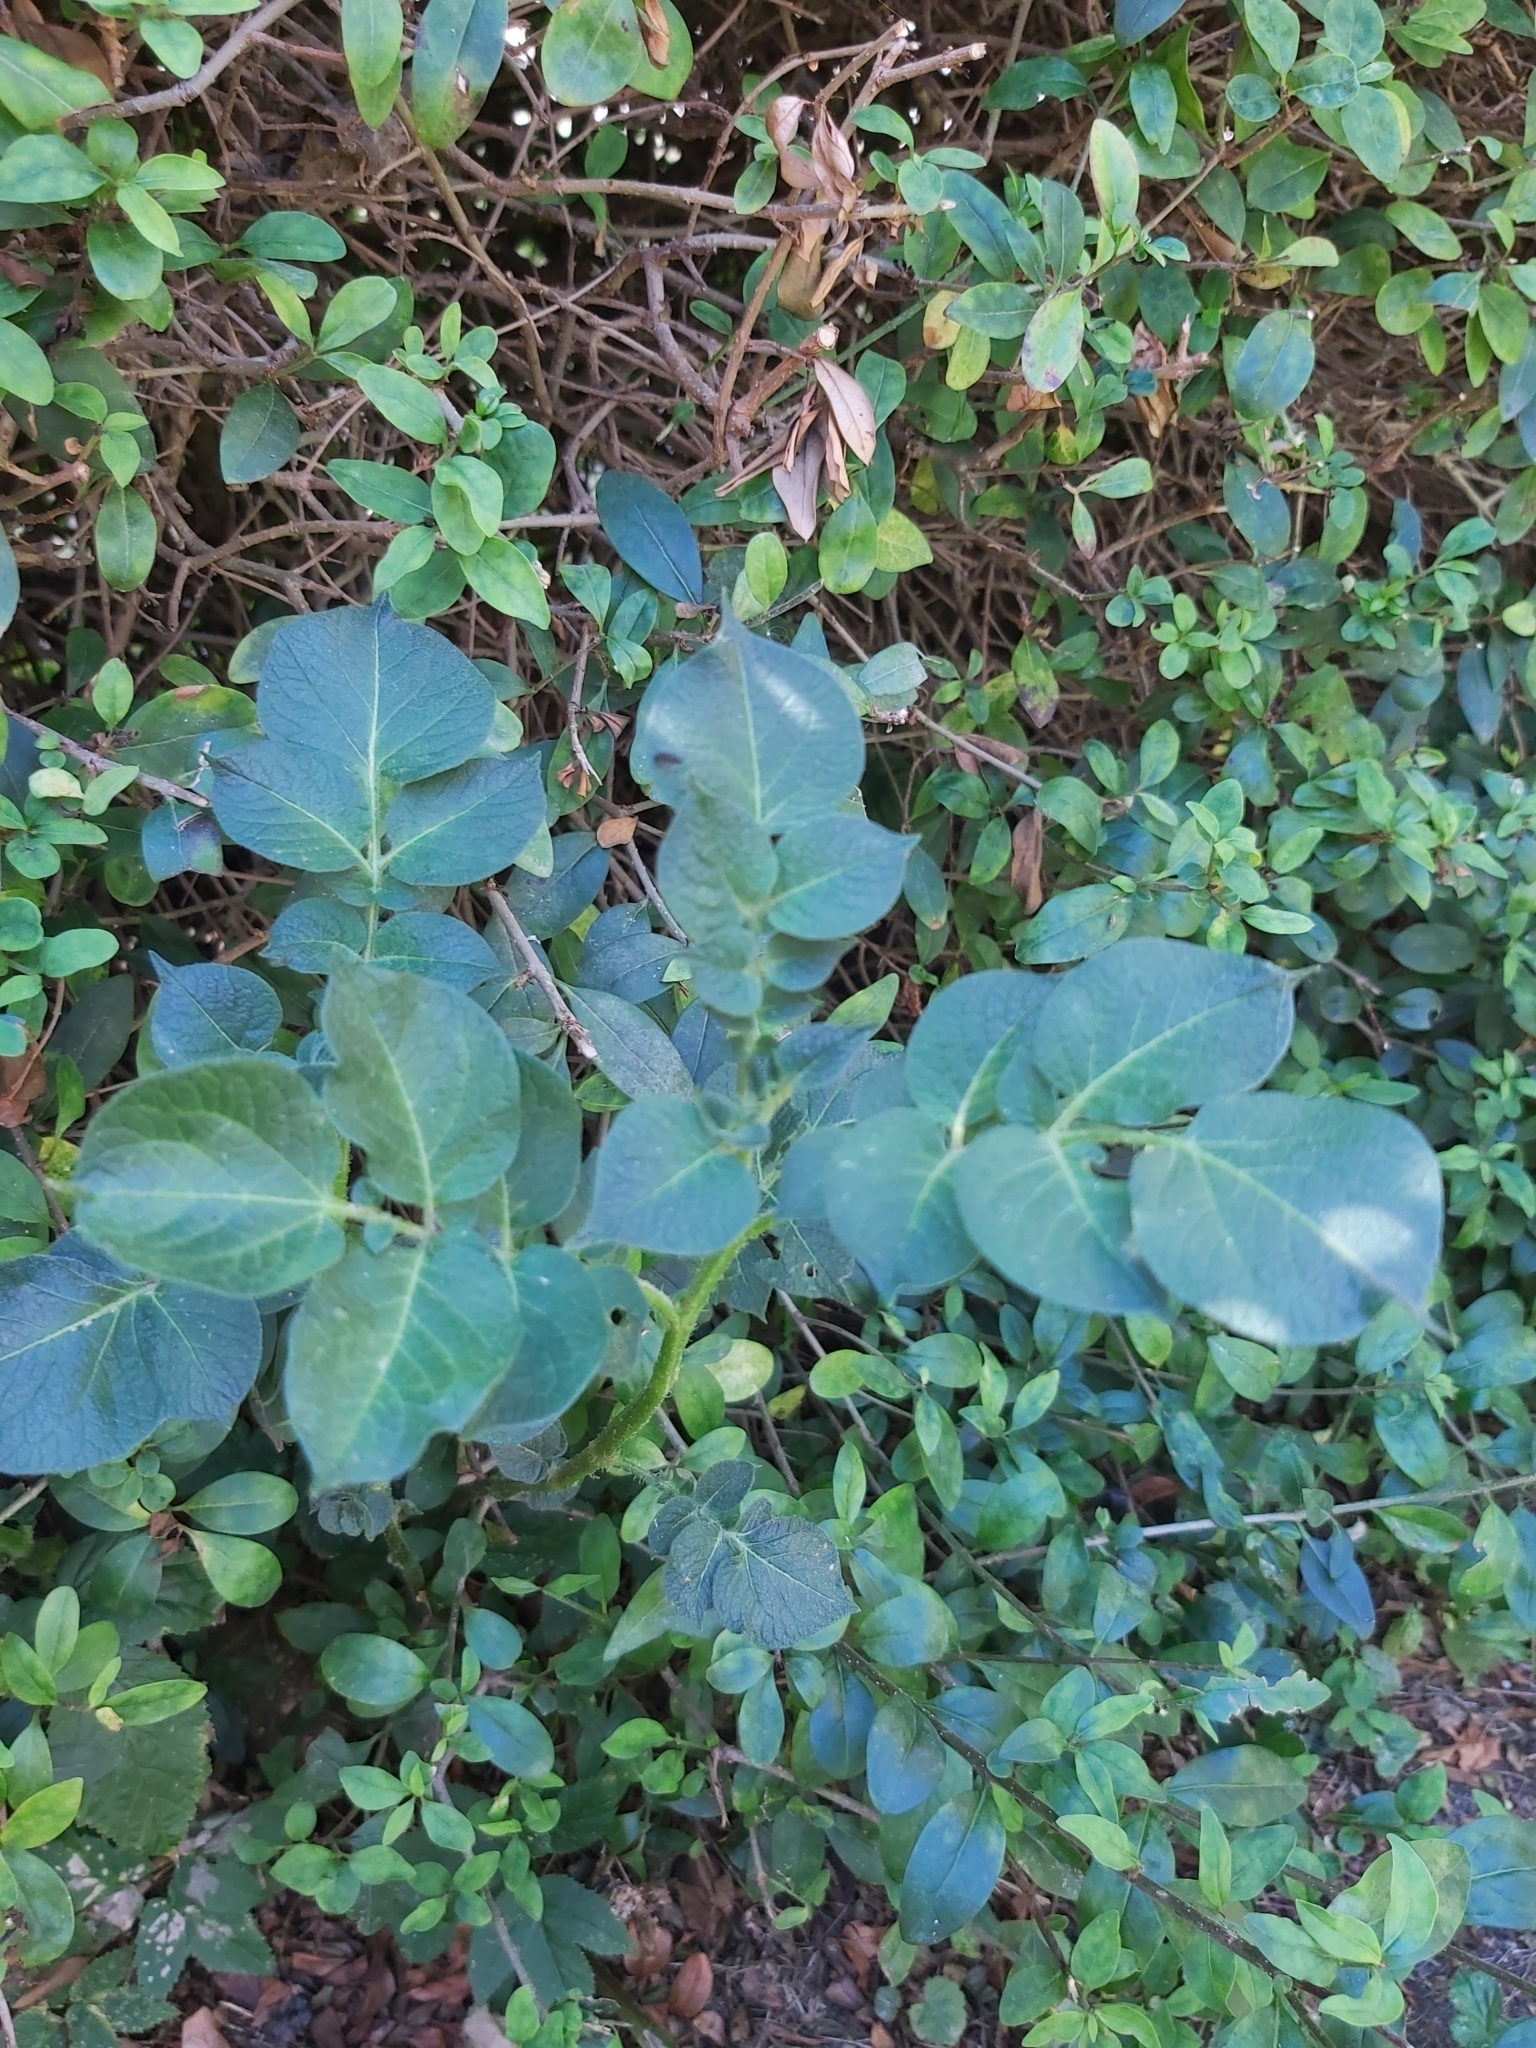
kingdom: Plantae
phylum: Tracheophyta
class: Magnoliopsida
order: Solanales
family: Solanaceae
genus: Solanum
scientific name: Solanum tuberosum
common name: Potato
